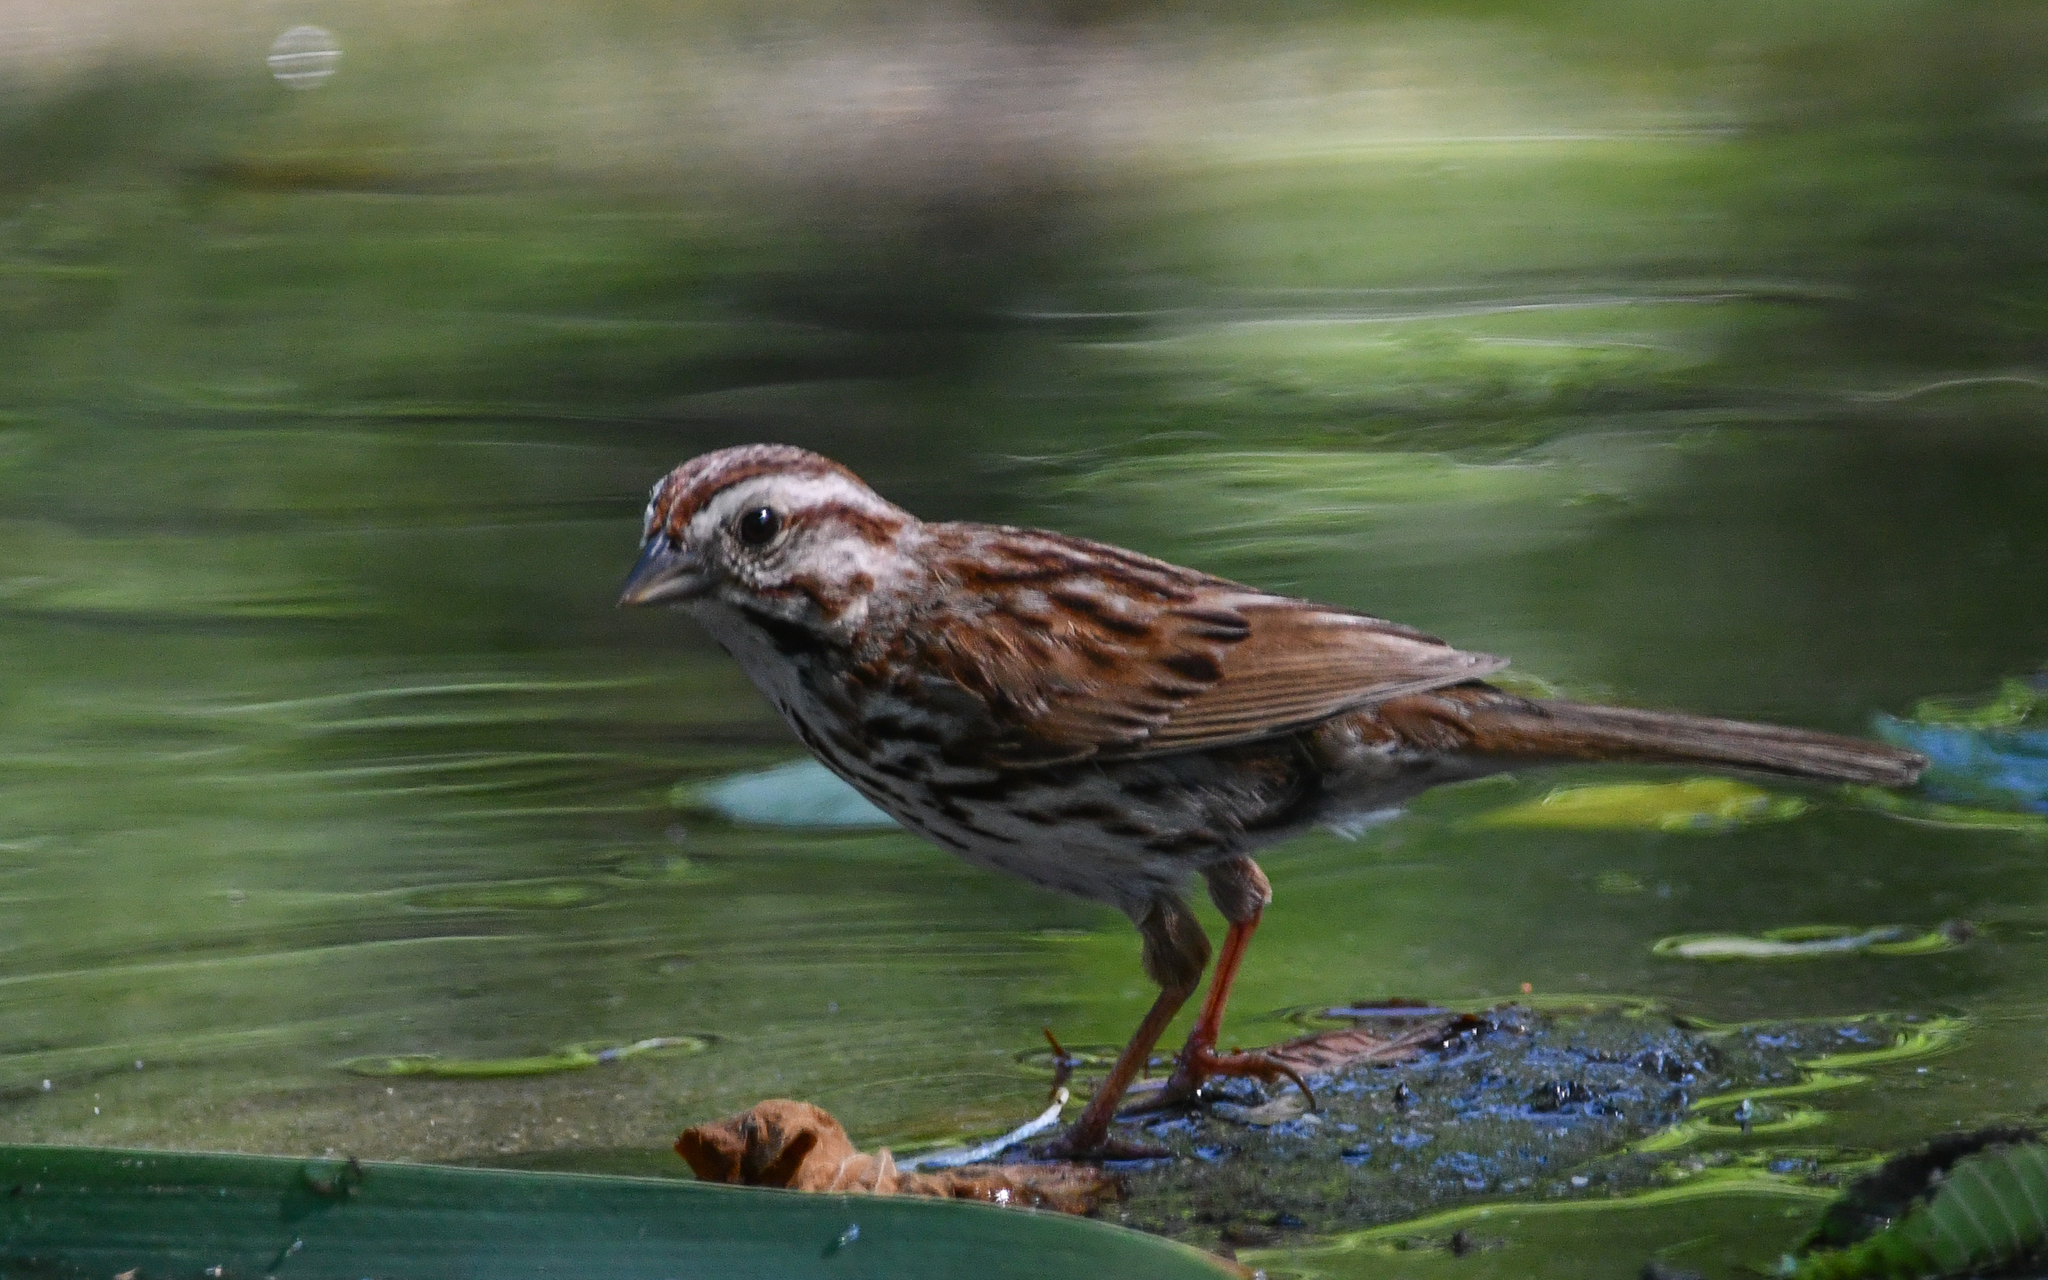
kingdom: Animalia
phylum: Chordata
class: Aves
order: Passeriformes
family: Passerellidae
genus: Melospiza
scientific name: Melospiza melodia
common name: Song sparrow
